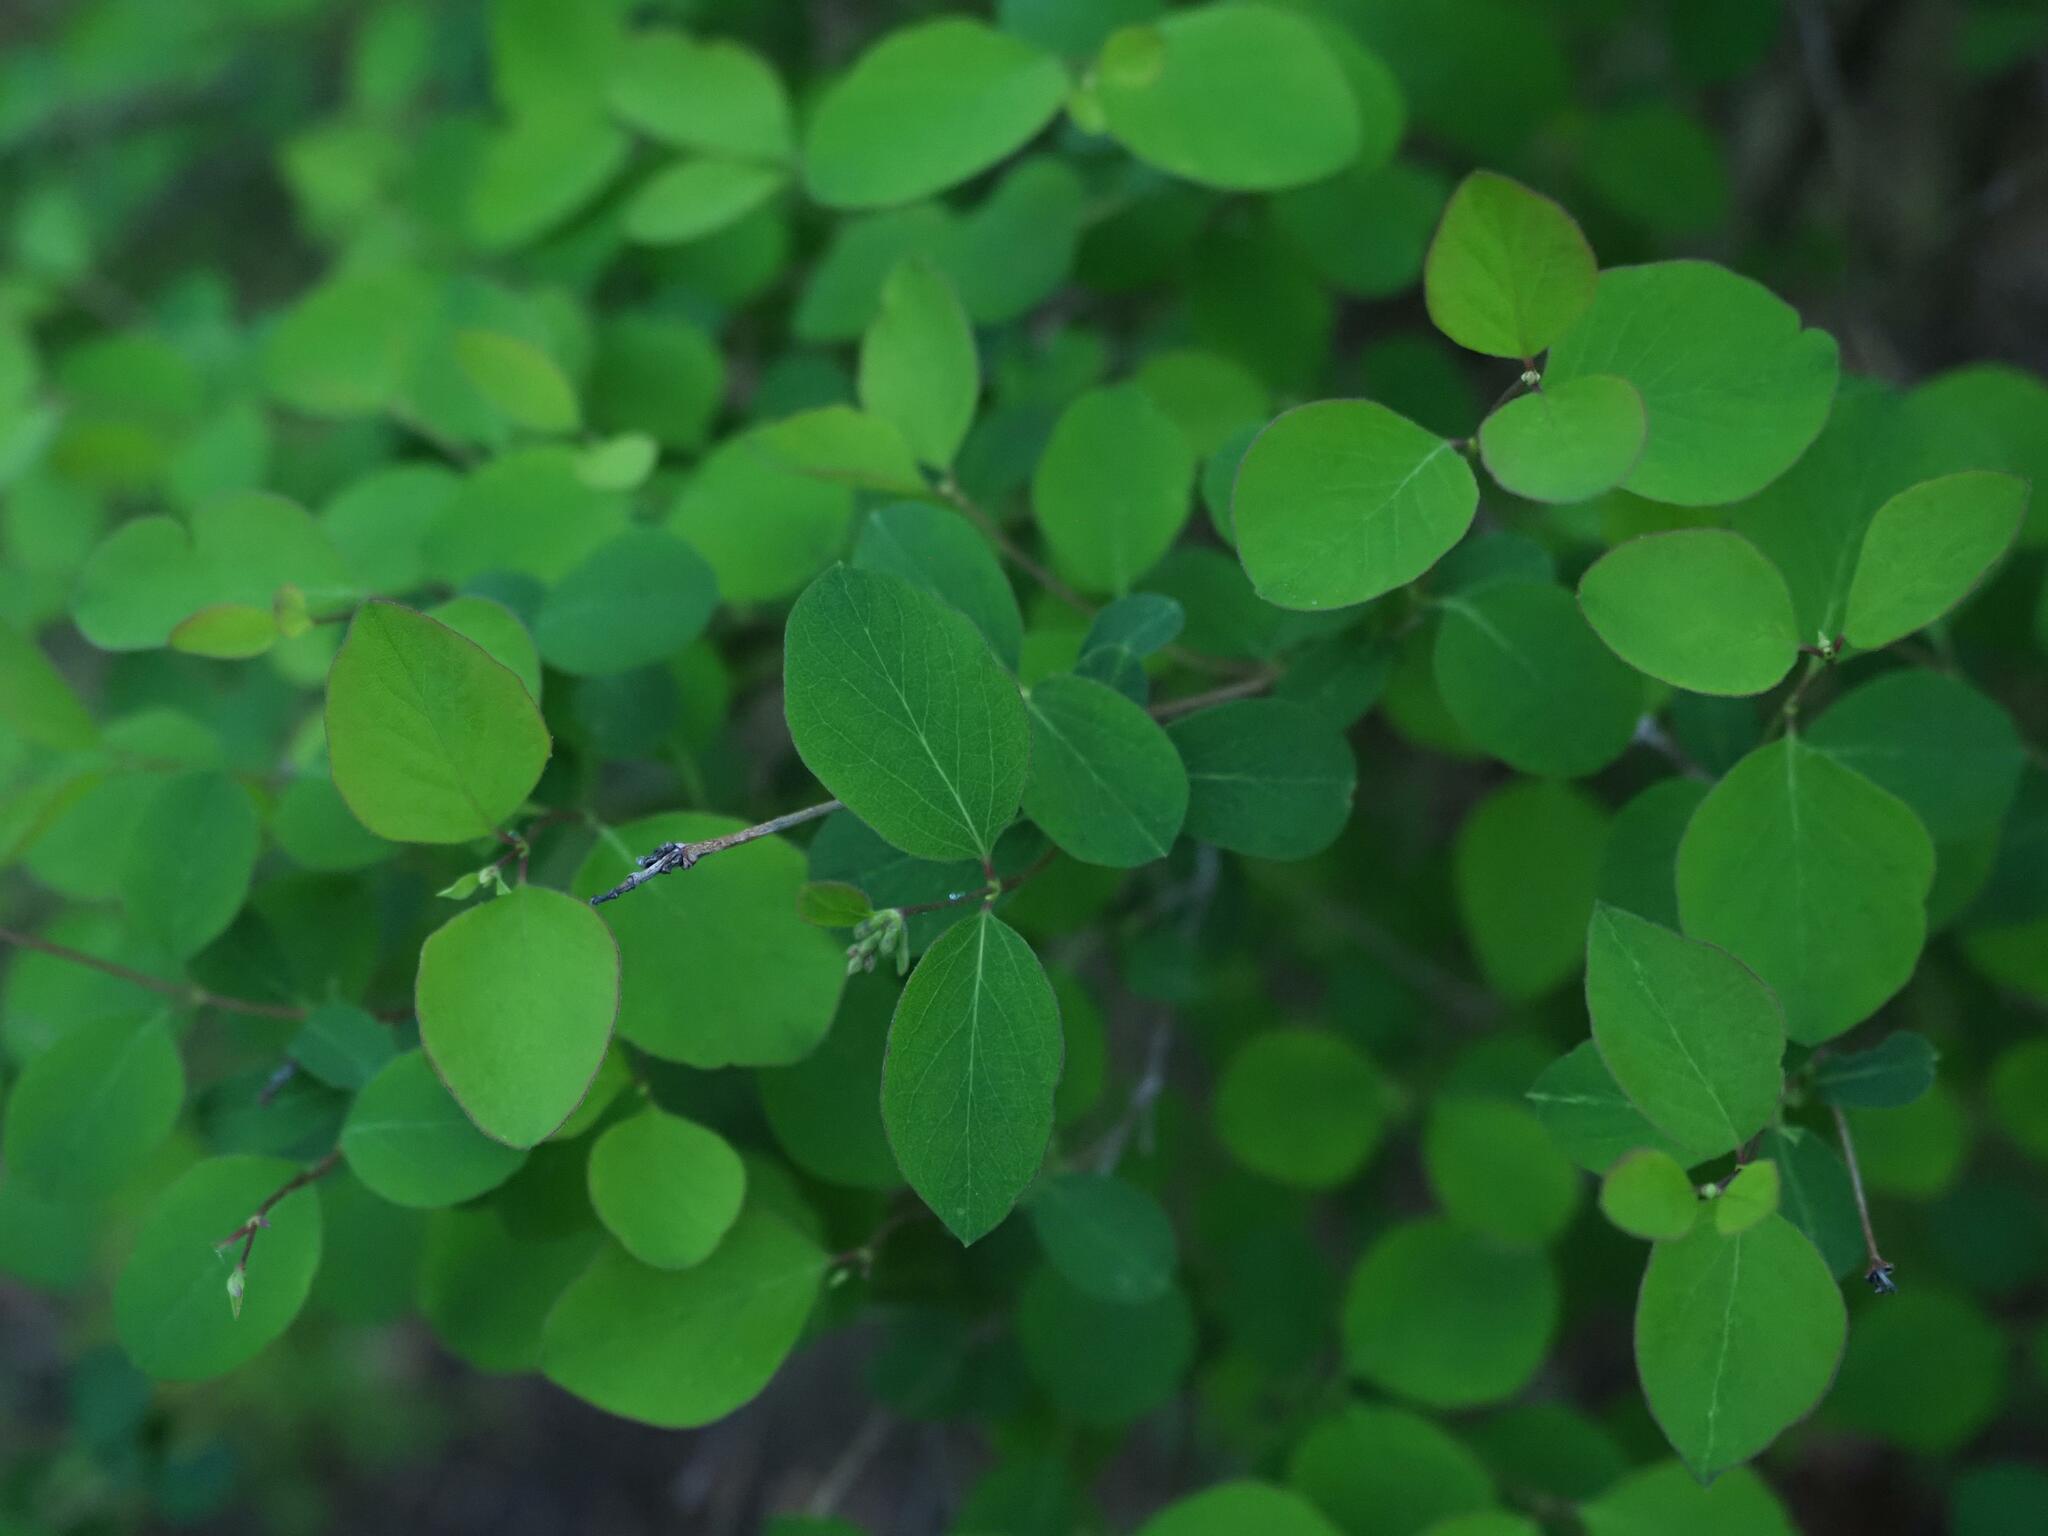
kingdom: Plantae
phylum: Tracheophyta
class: Magnoliopsida
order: Dipsacales
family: Caprifoliaceae
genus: Symphoricarpos
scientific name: Symphoricarpos albus
